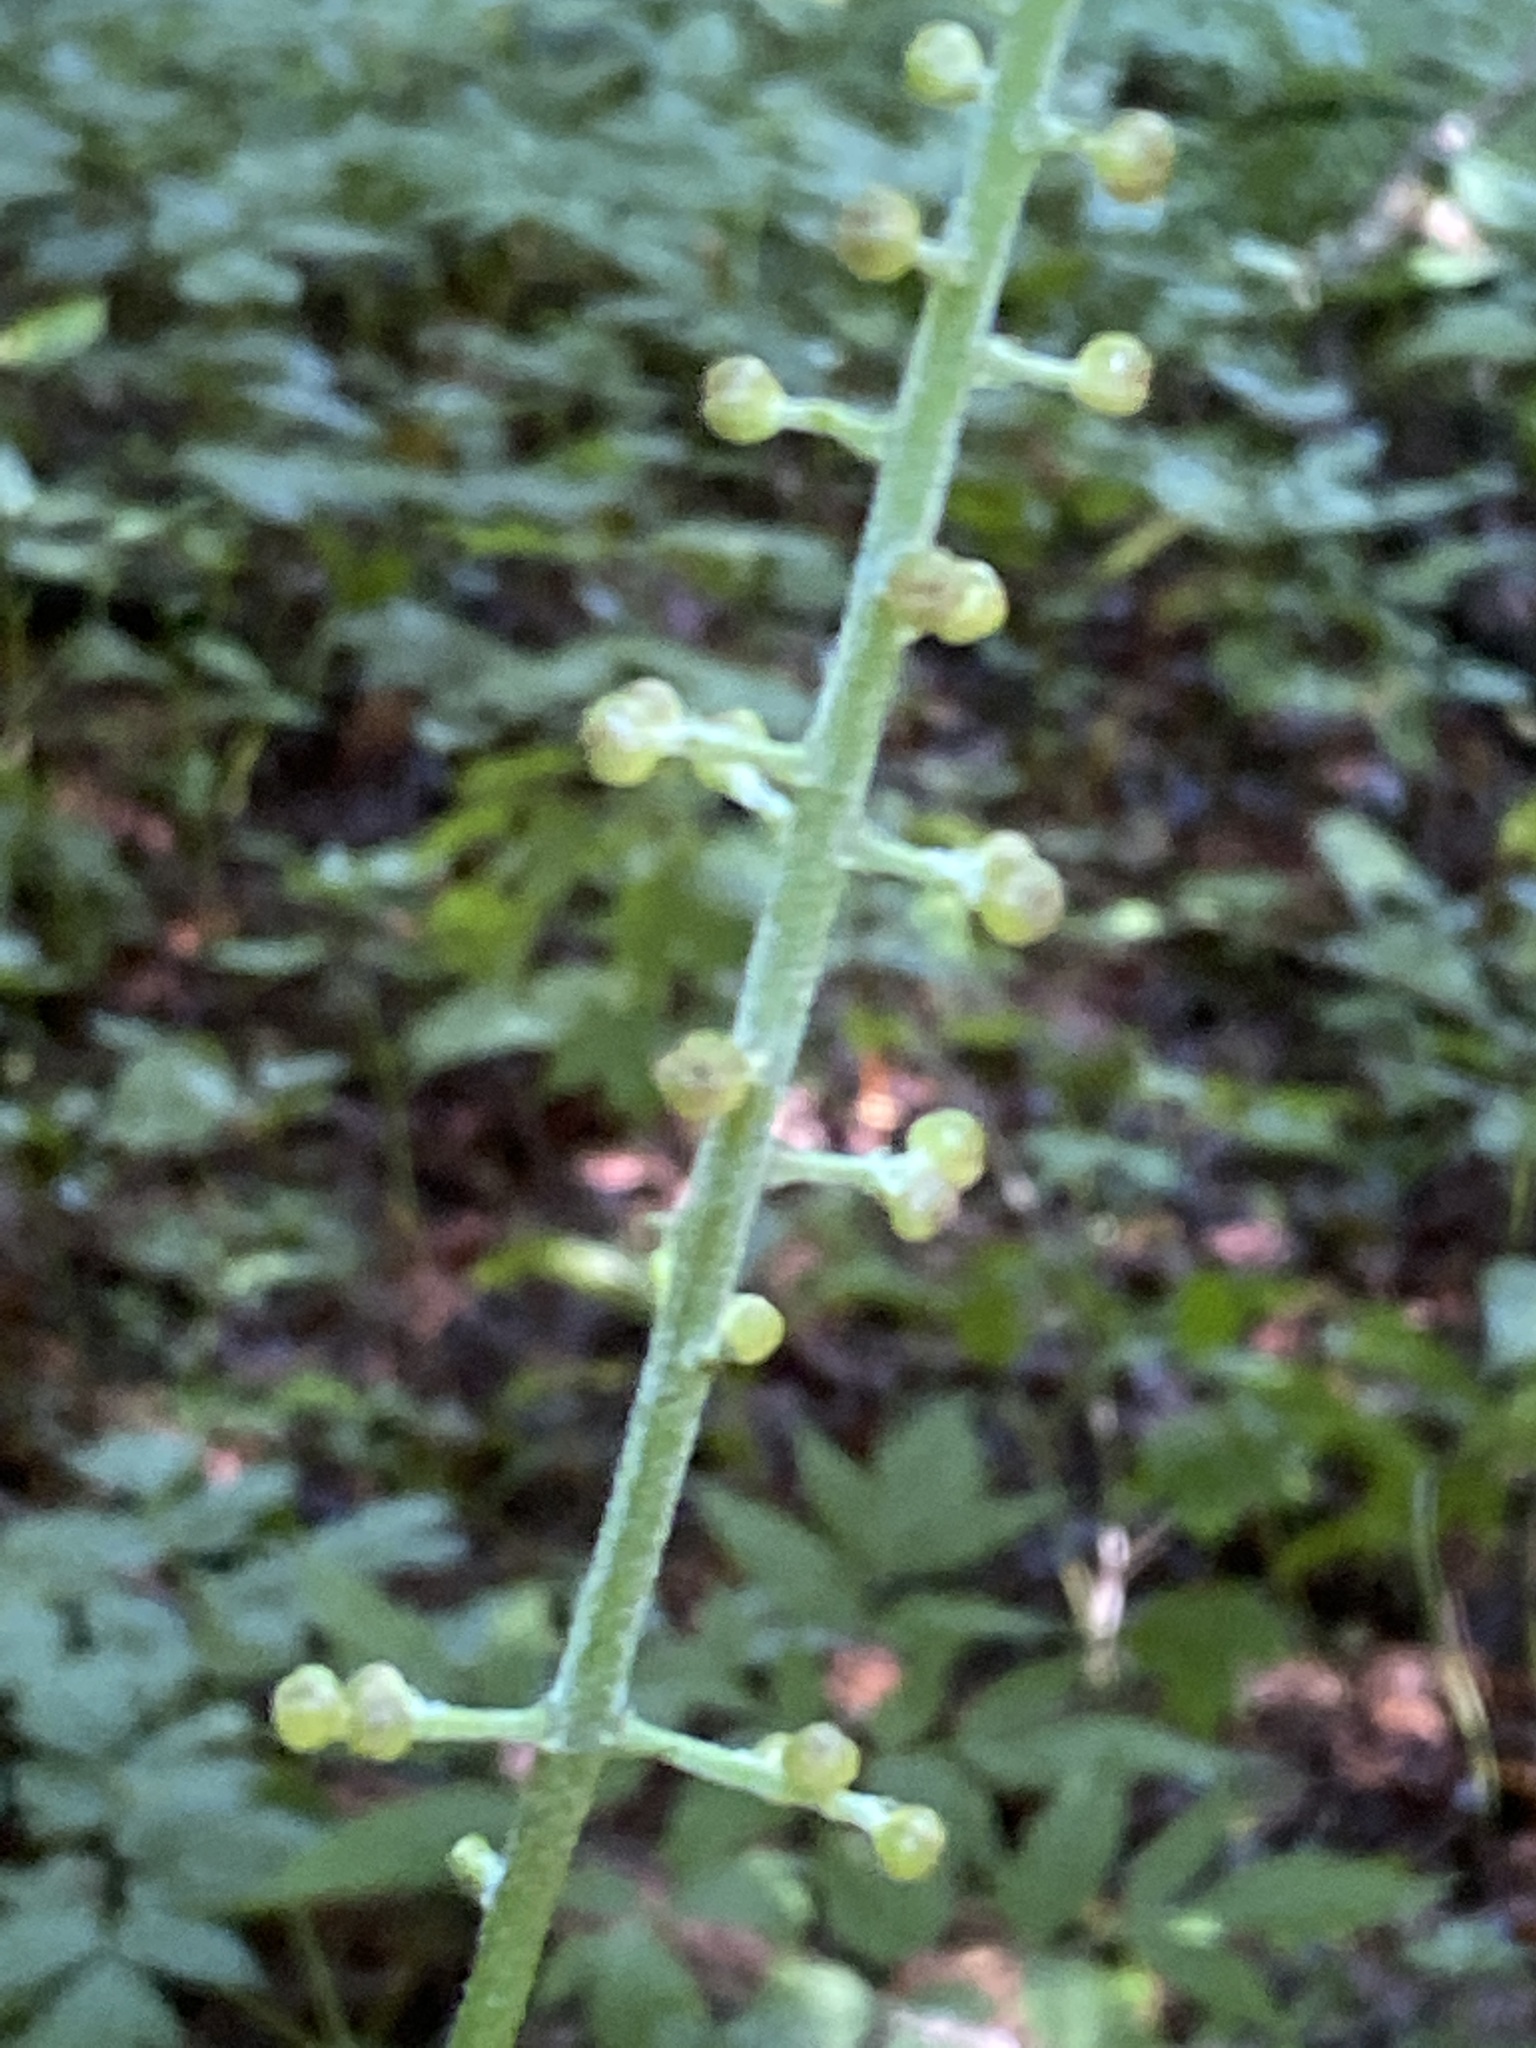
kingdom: Plantae
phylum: Tracheophyta
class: Magnoliopsida
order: Ranunculales
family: Ranunculaceae
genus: Actaea
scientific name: Actaea podocarpa
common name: American bugbane
